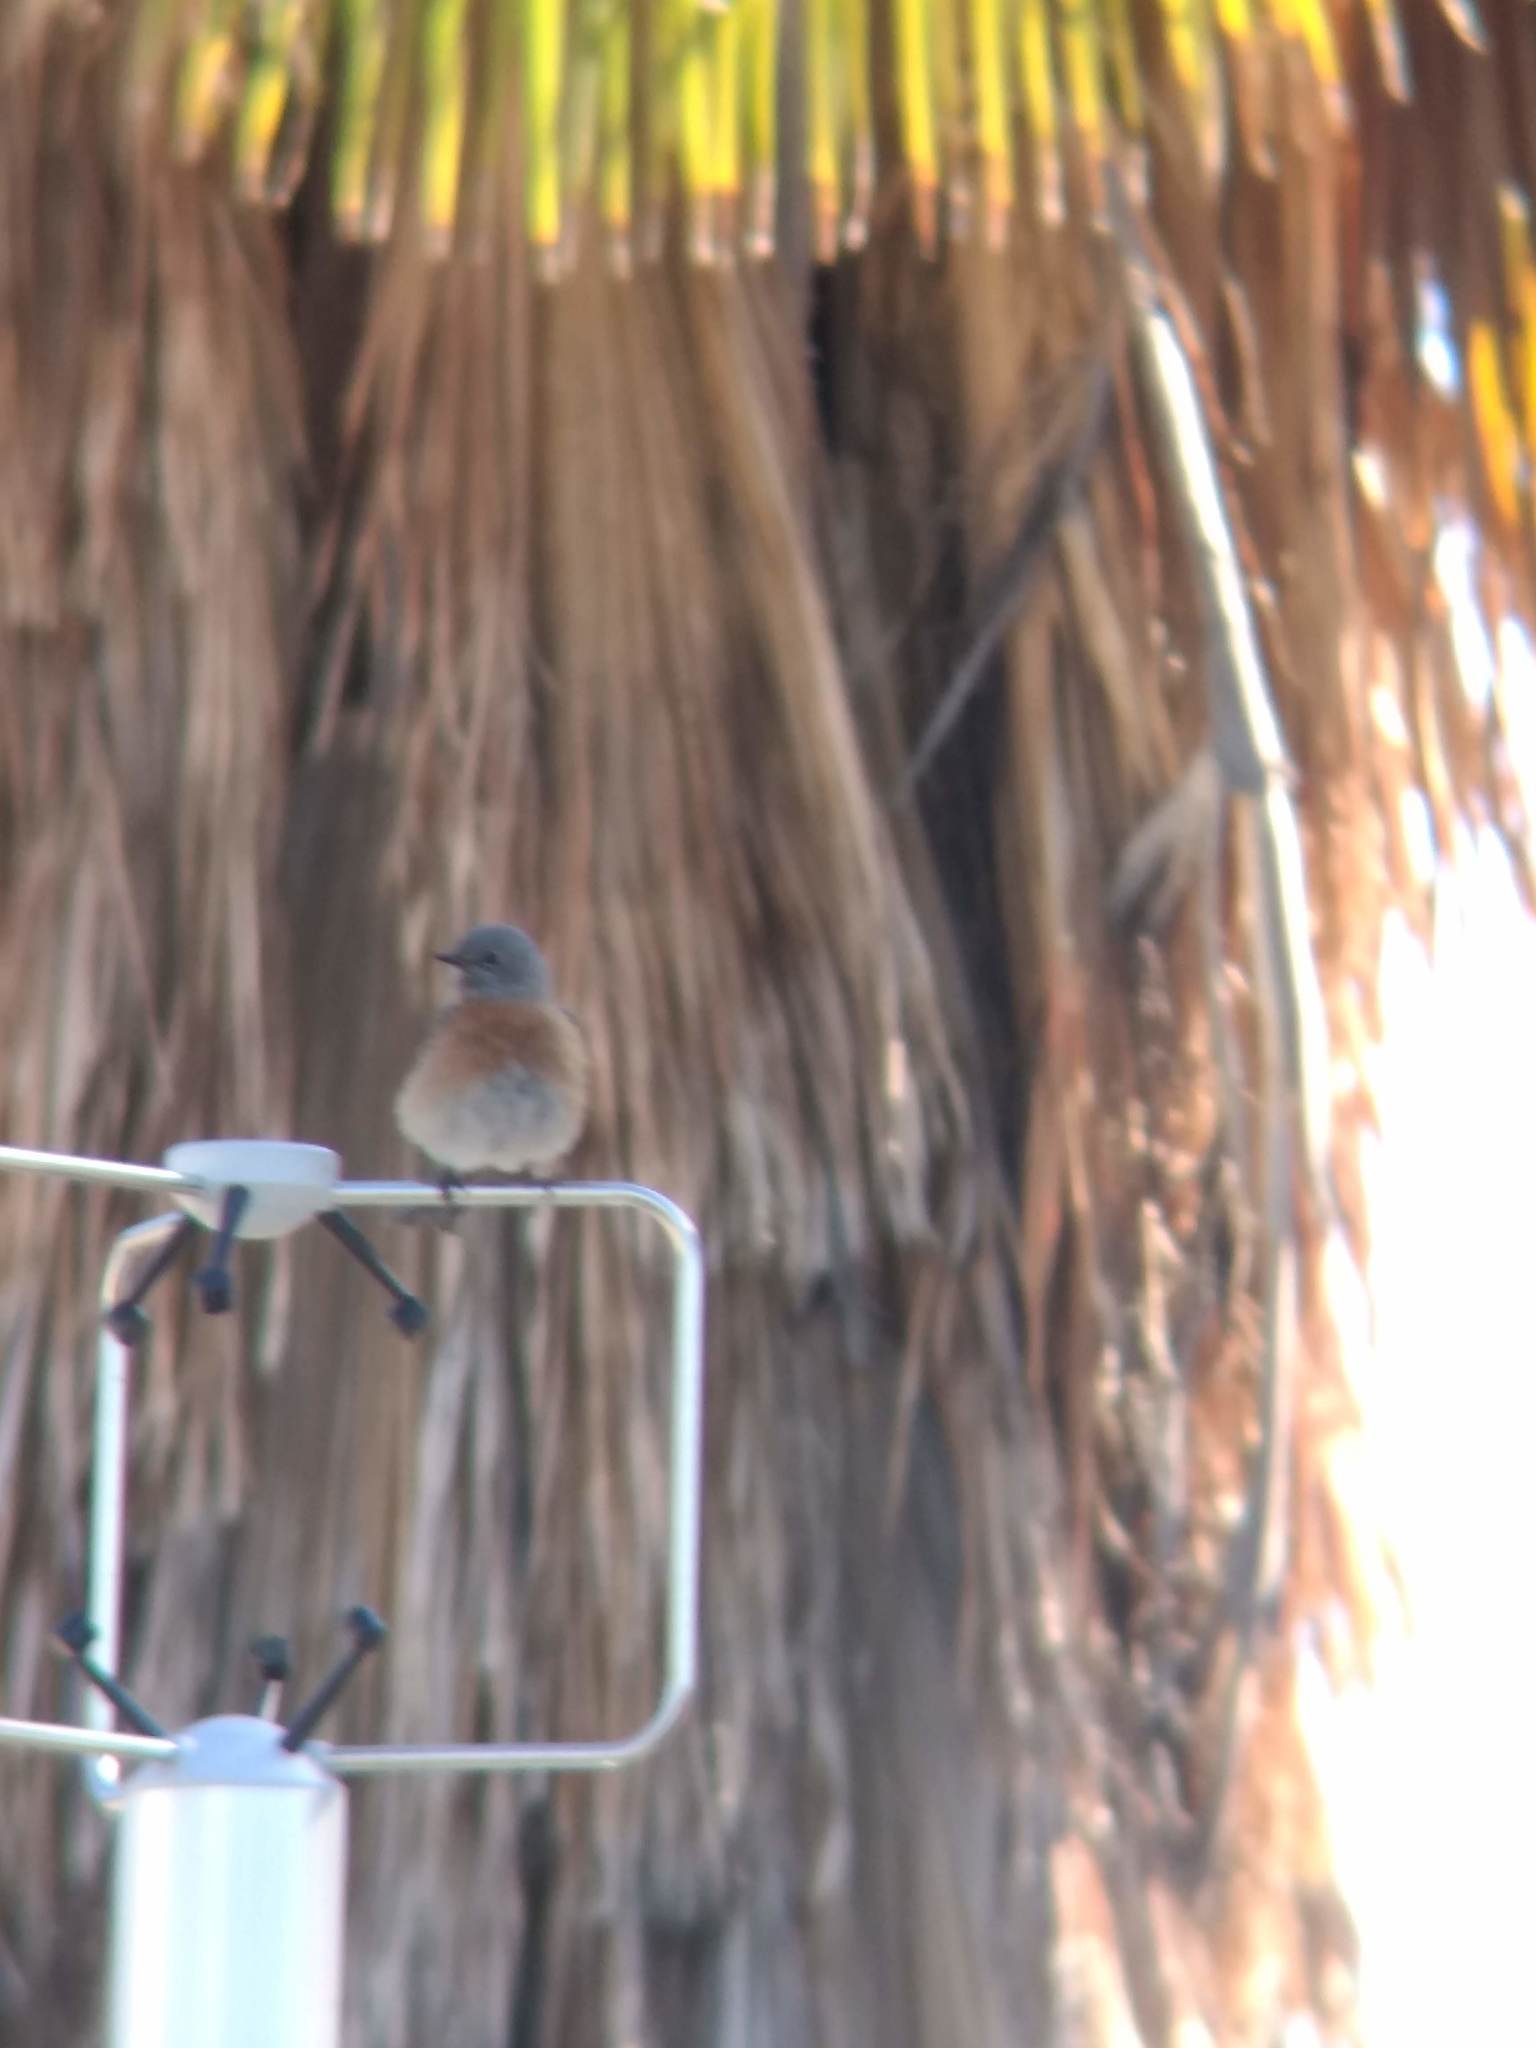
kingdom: Animalia
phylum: Chordata
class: Aves
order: Passeriformes
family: Turdidae
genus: Sialia
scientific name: Sialia mexicana
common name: Western bluebird
